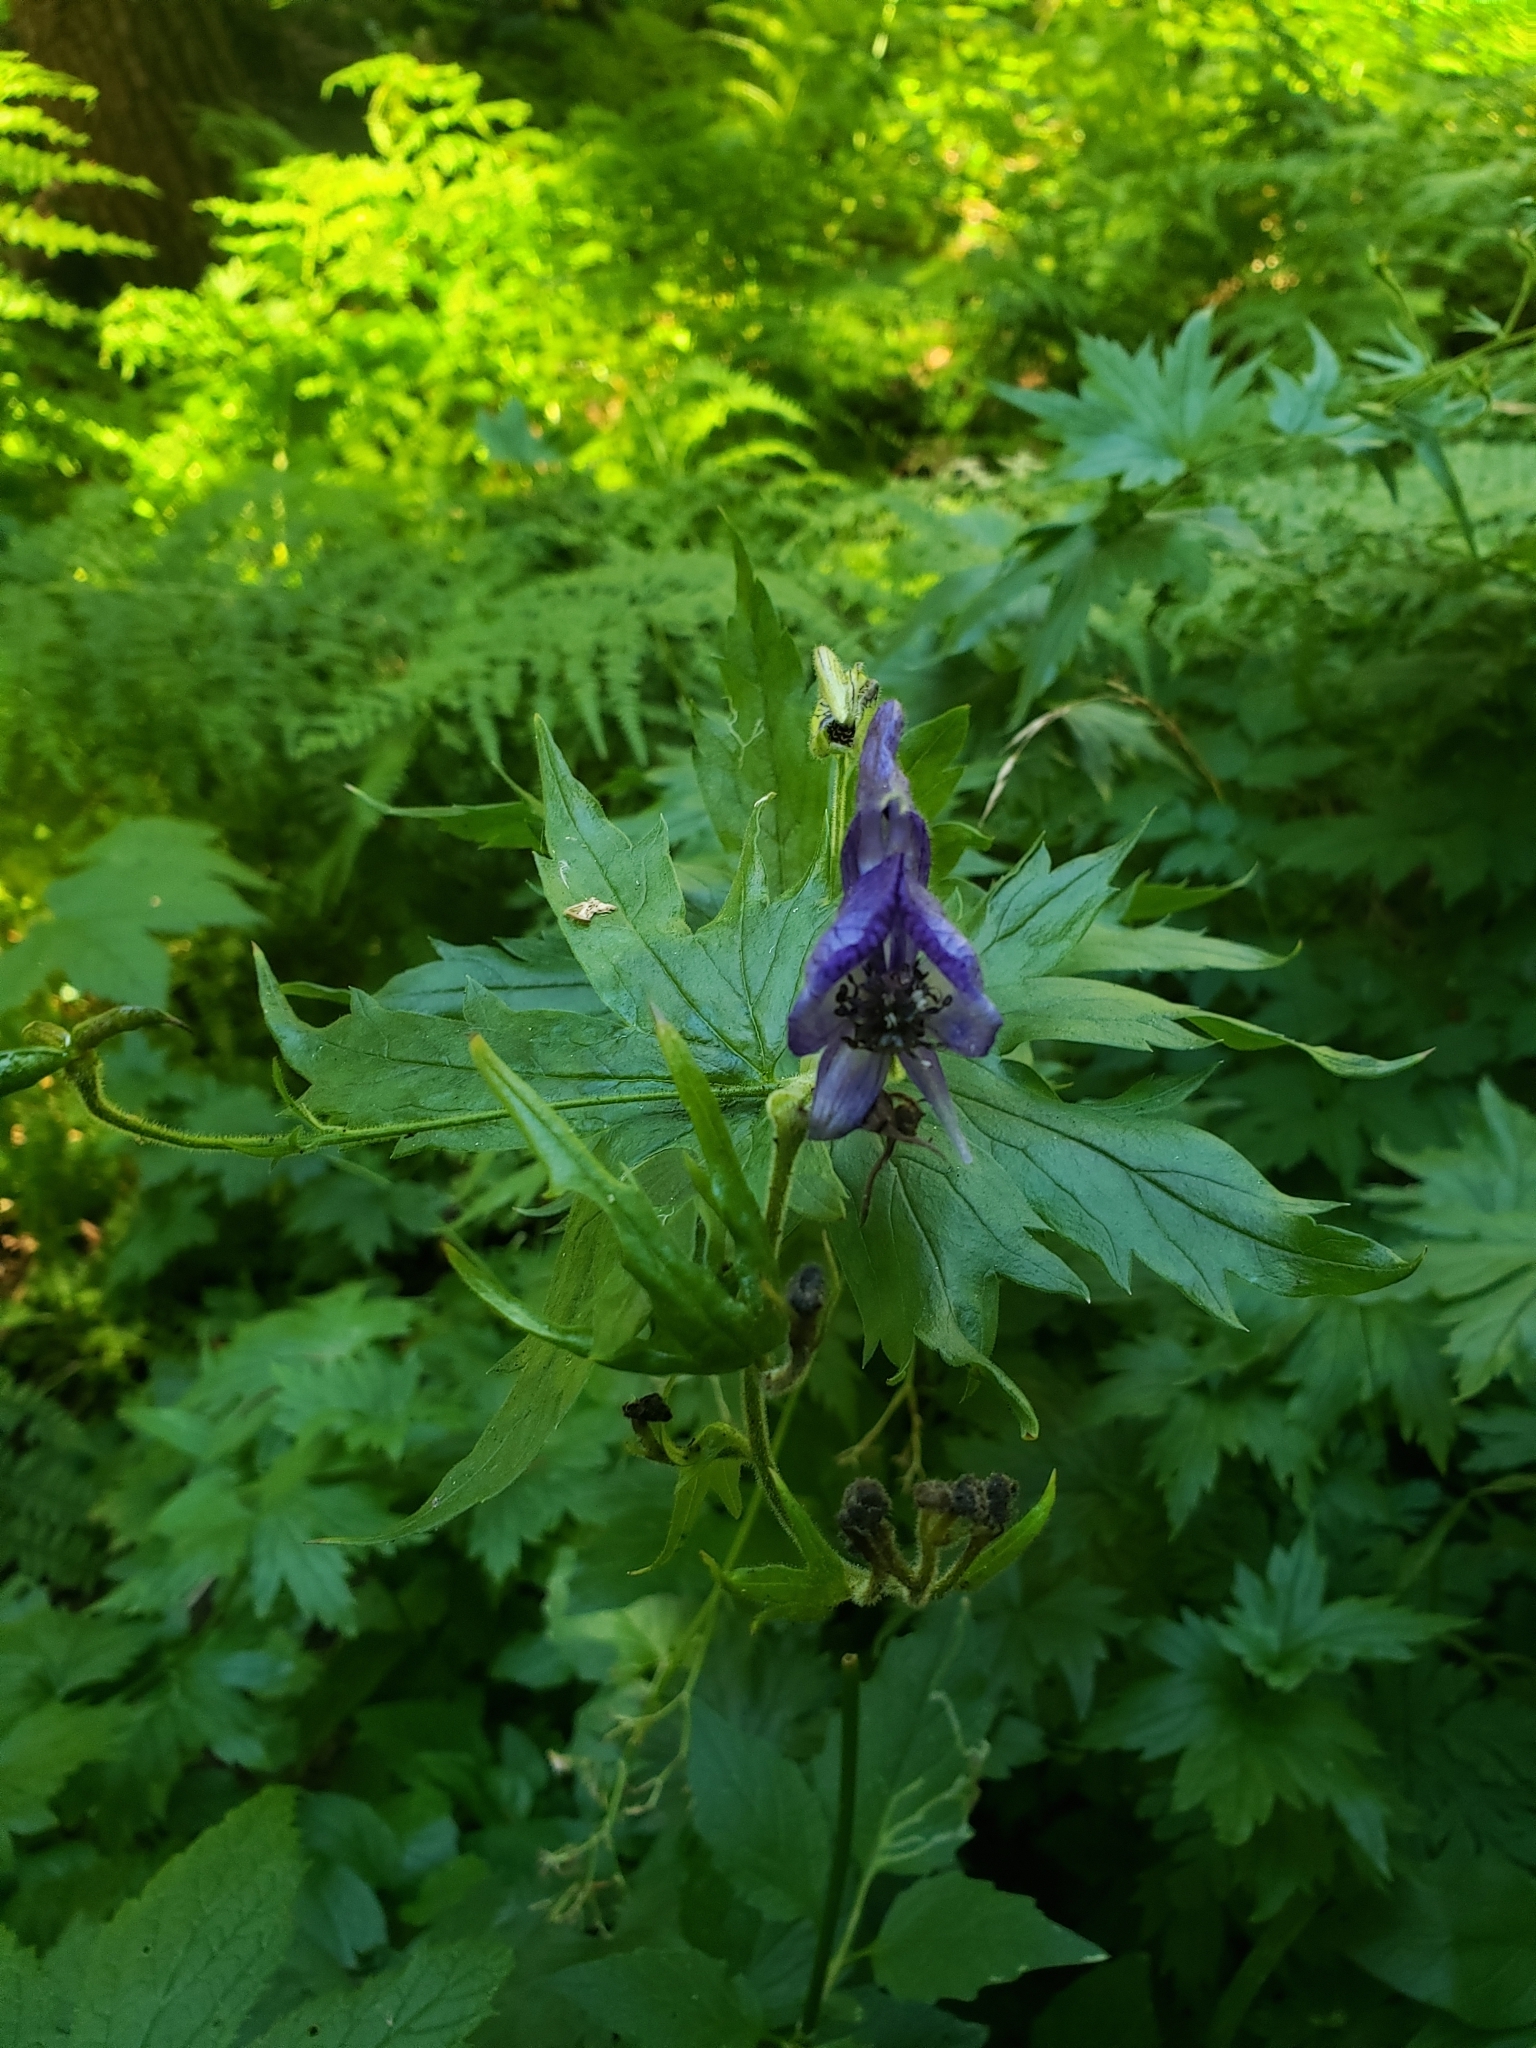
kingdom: Plantae
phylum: Tracheophyta
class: Magnoliopsida
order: Ranunculales
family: Ranunculaceae
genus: Aconitum
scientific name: Aconitum columbianum
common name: Columbia aconite
